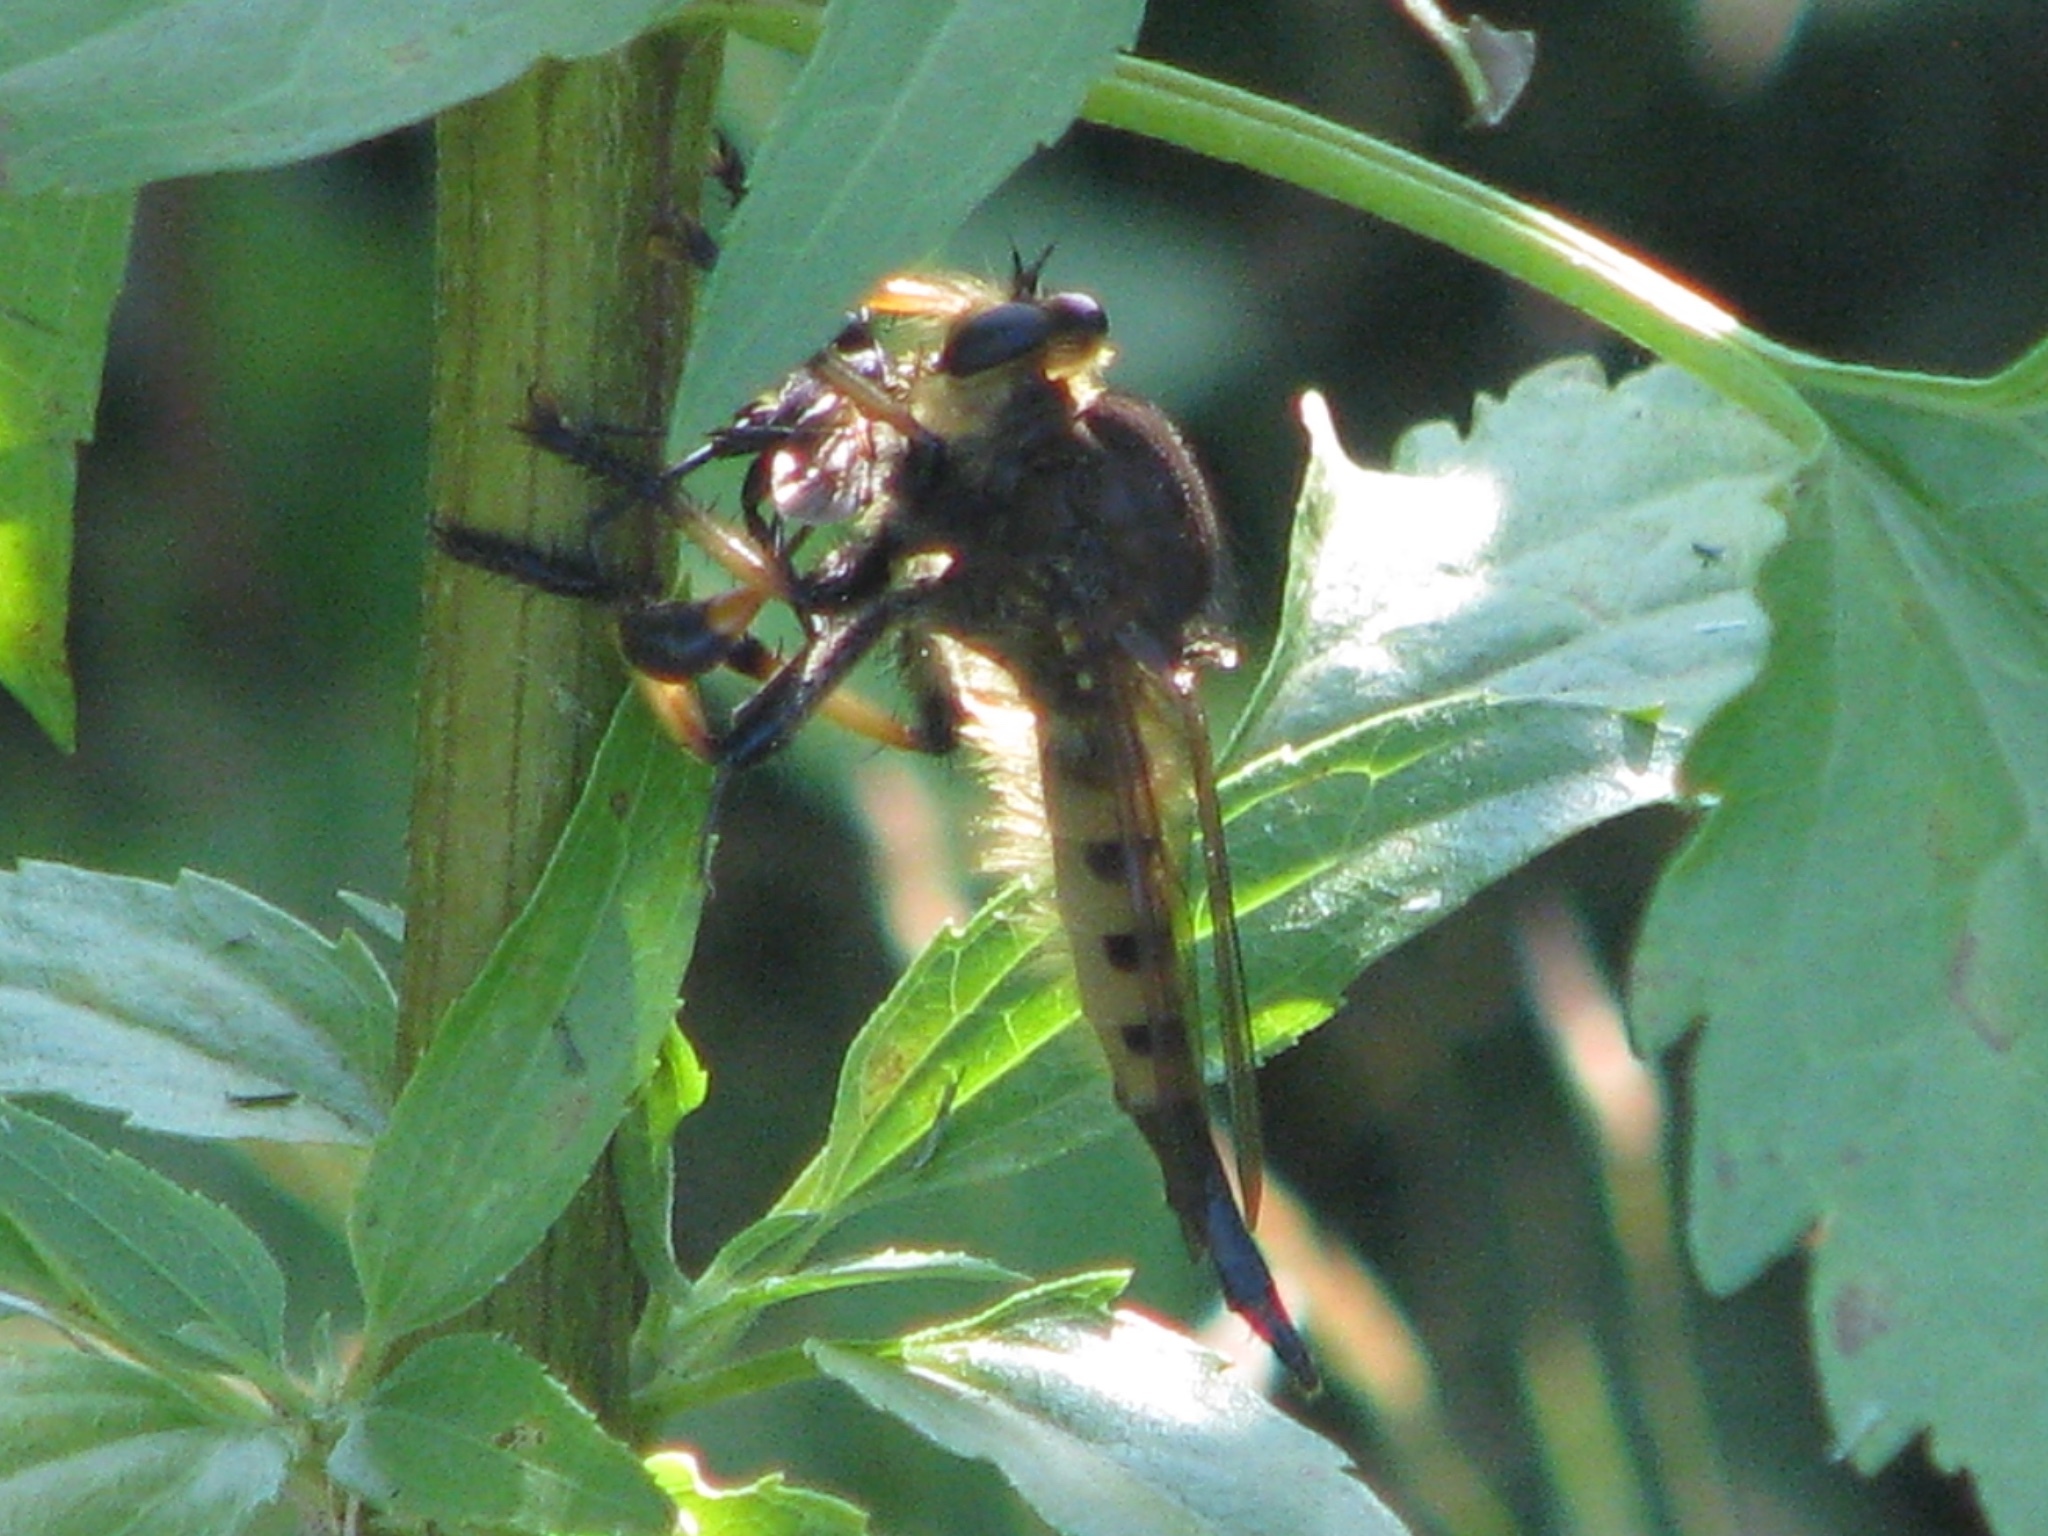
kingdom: Animalia
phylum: Arthropoda
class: Insecta
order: Diptera
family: Asilidae
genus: Promachus
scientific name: Promachus rufipes
